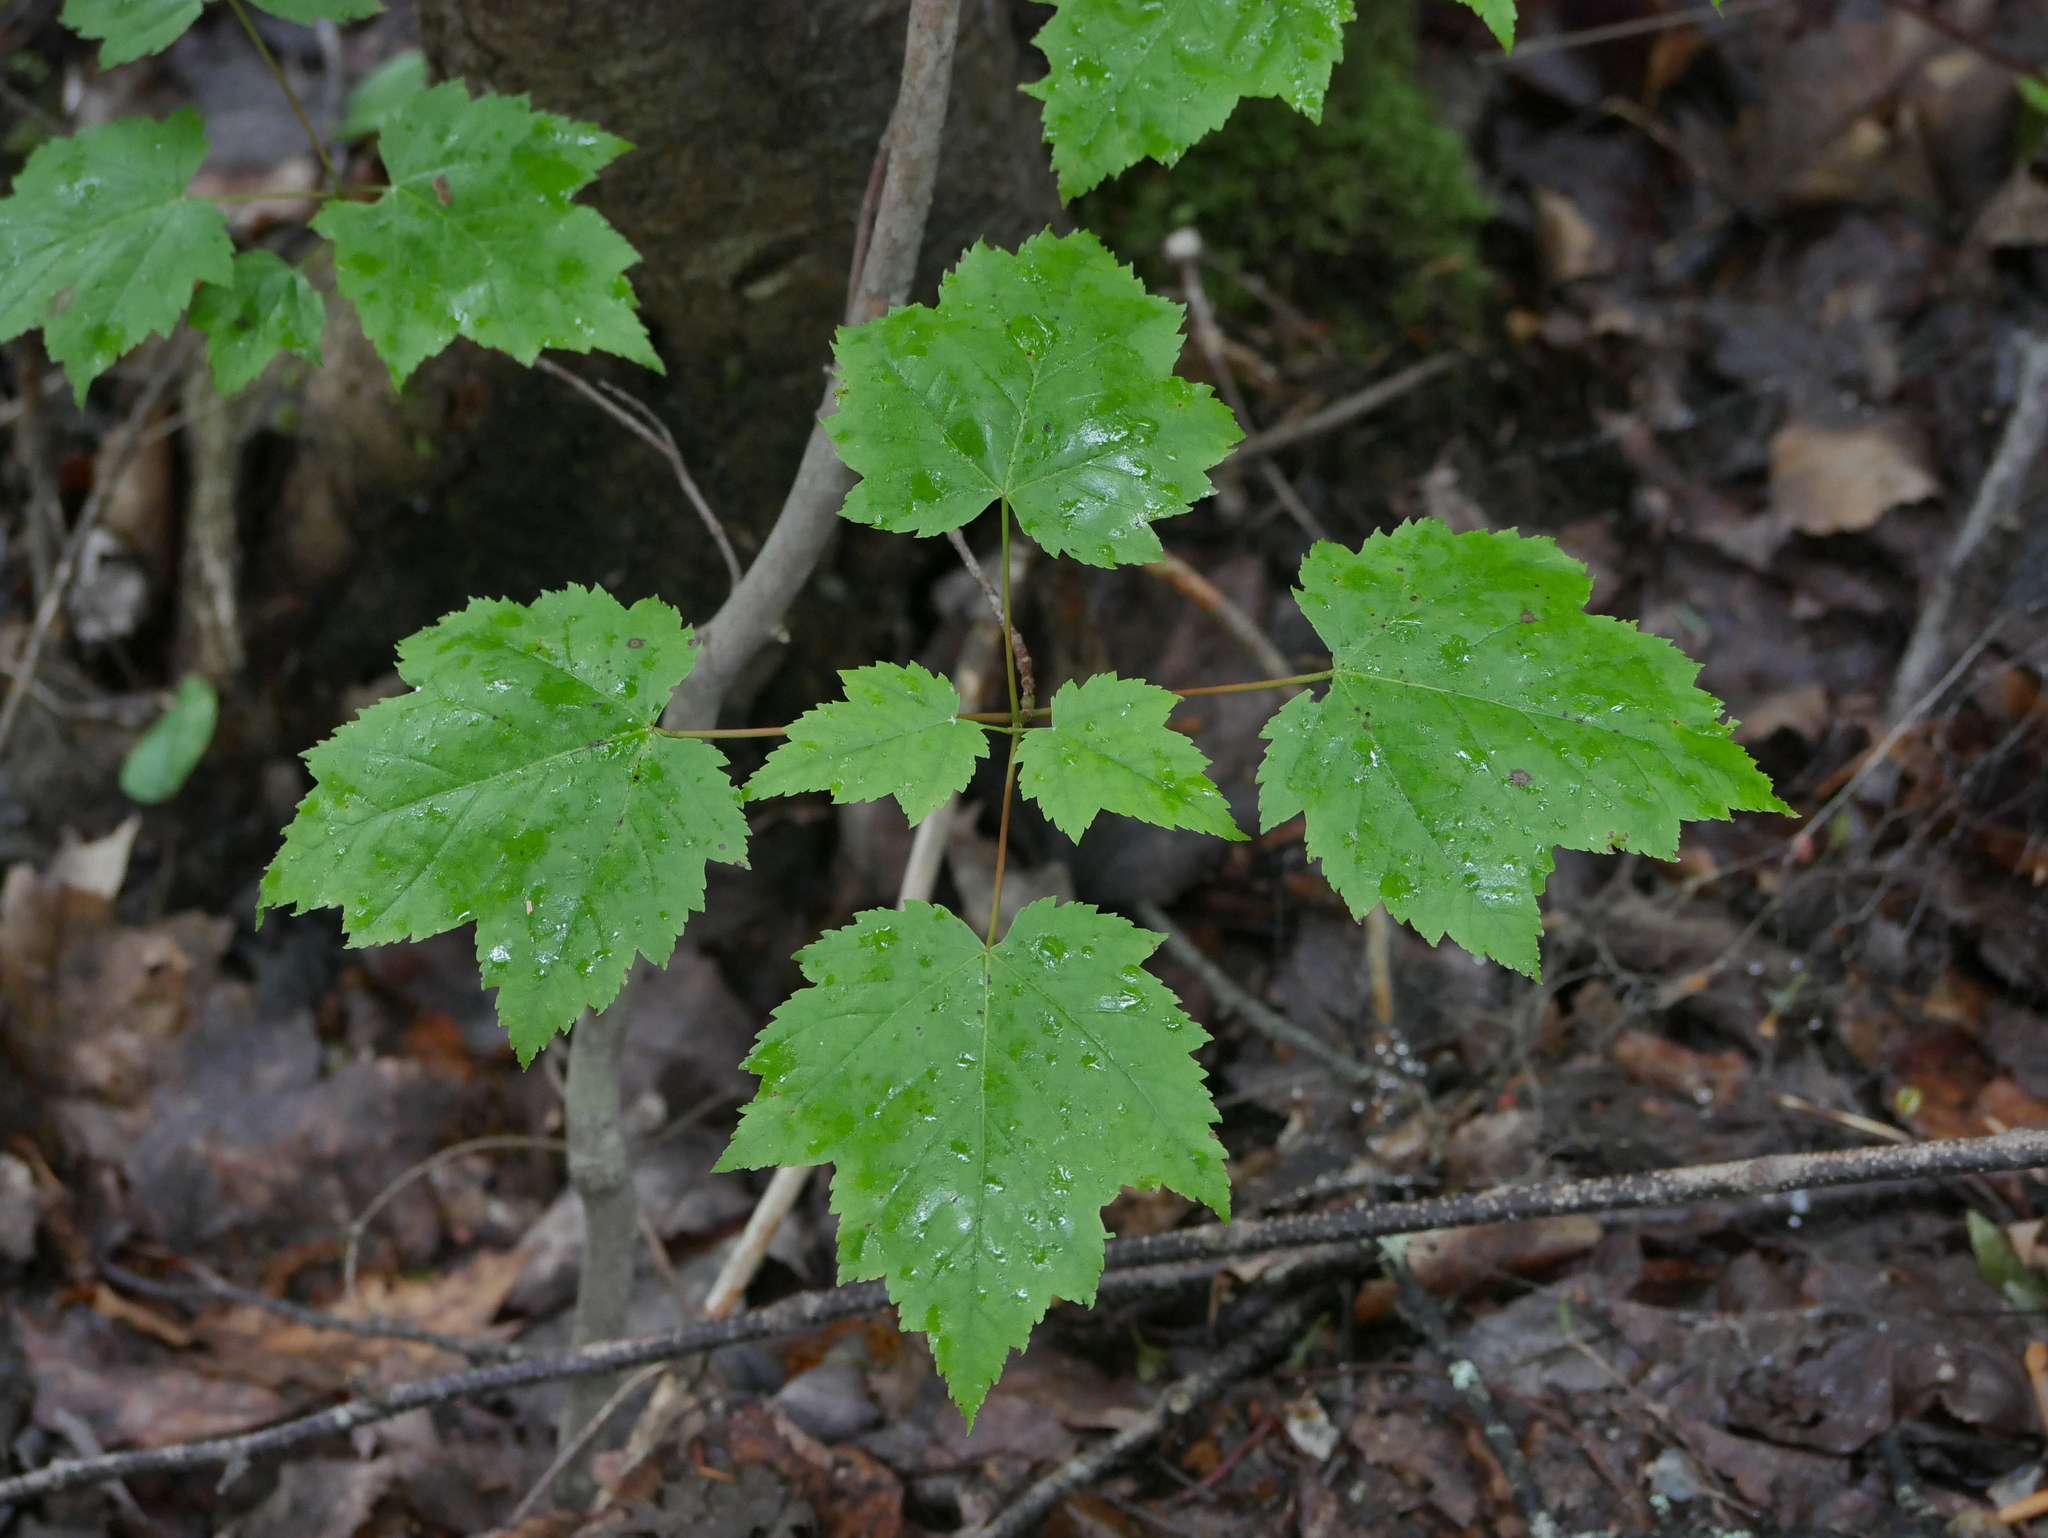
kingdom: Plantae
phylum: Tracheophyta
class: Magnoliopsida
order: Sapindales
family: Sapindaceae
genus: Acer
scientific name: Acer spicatum
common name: Mountain maple
